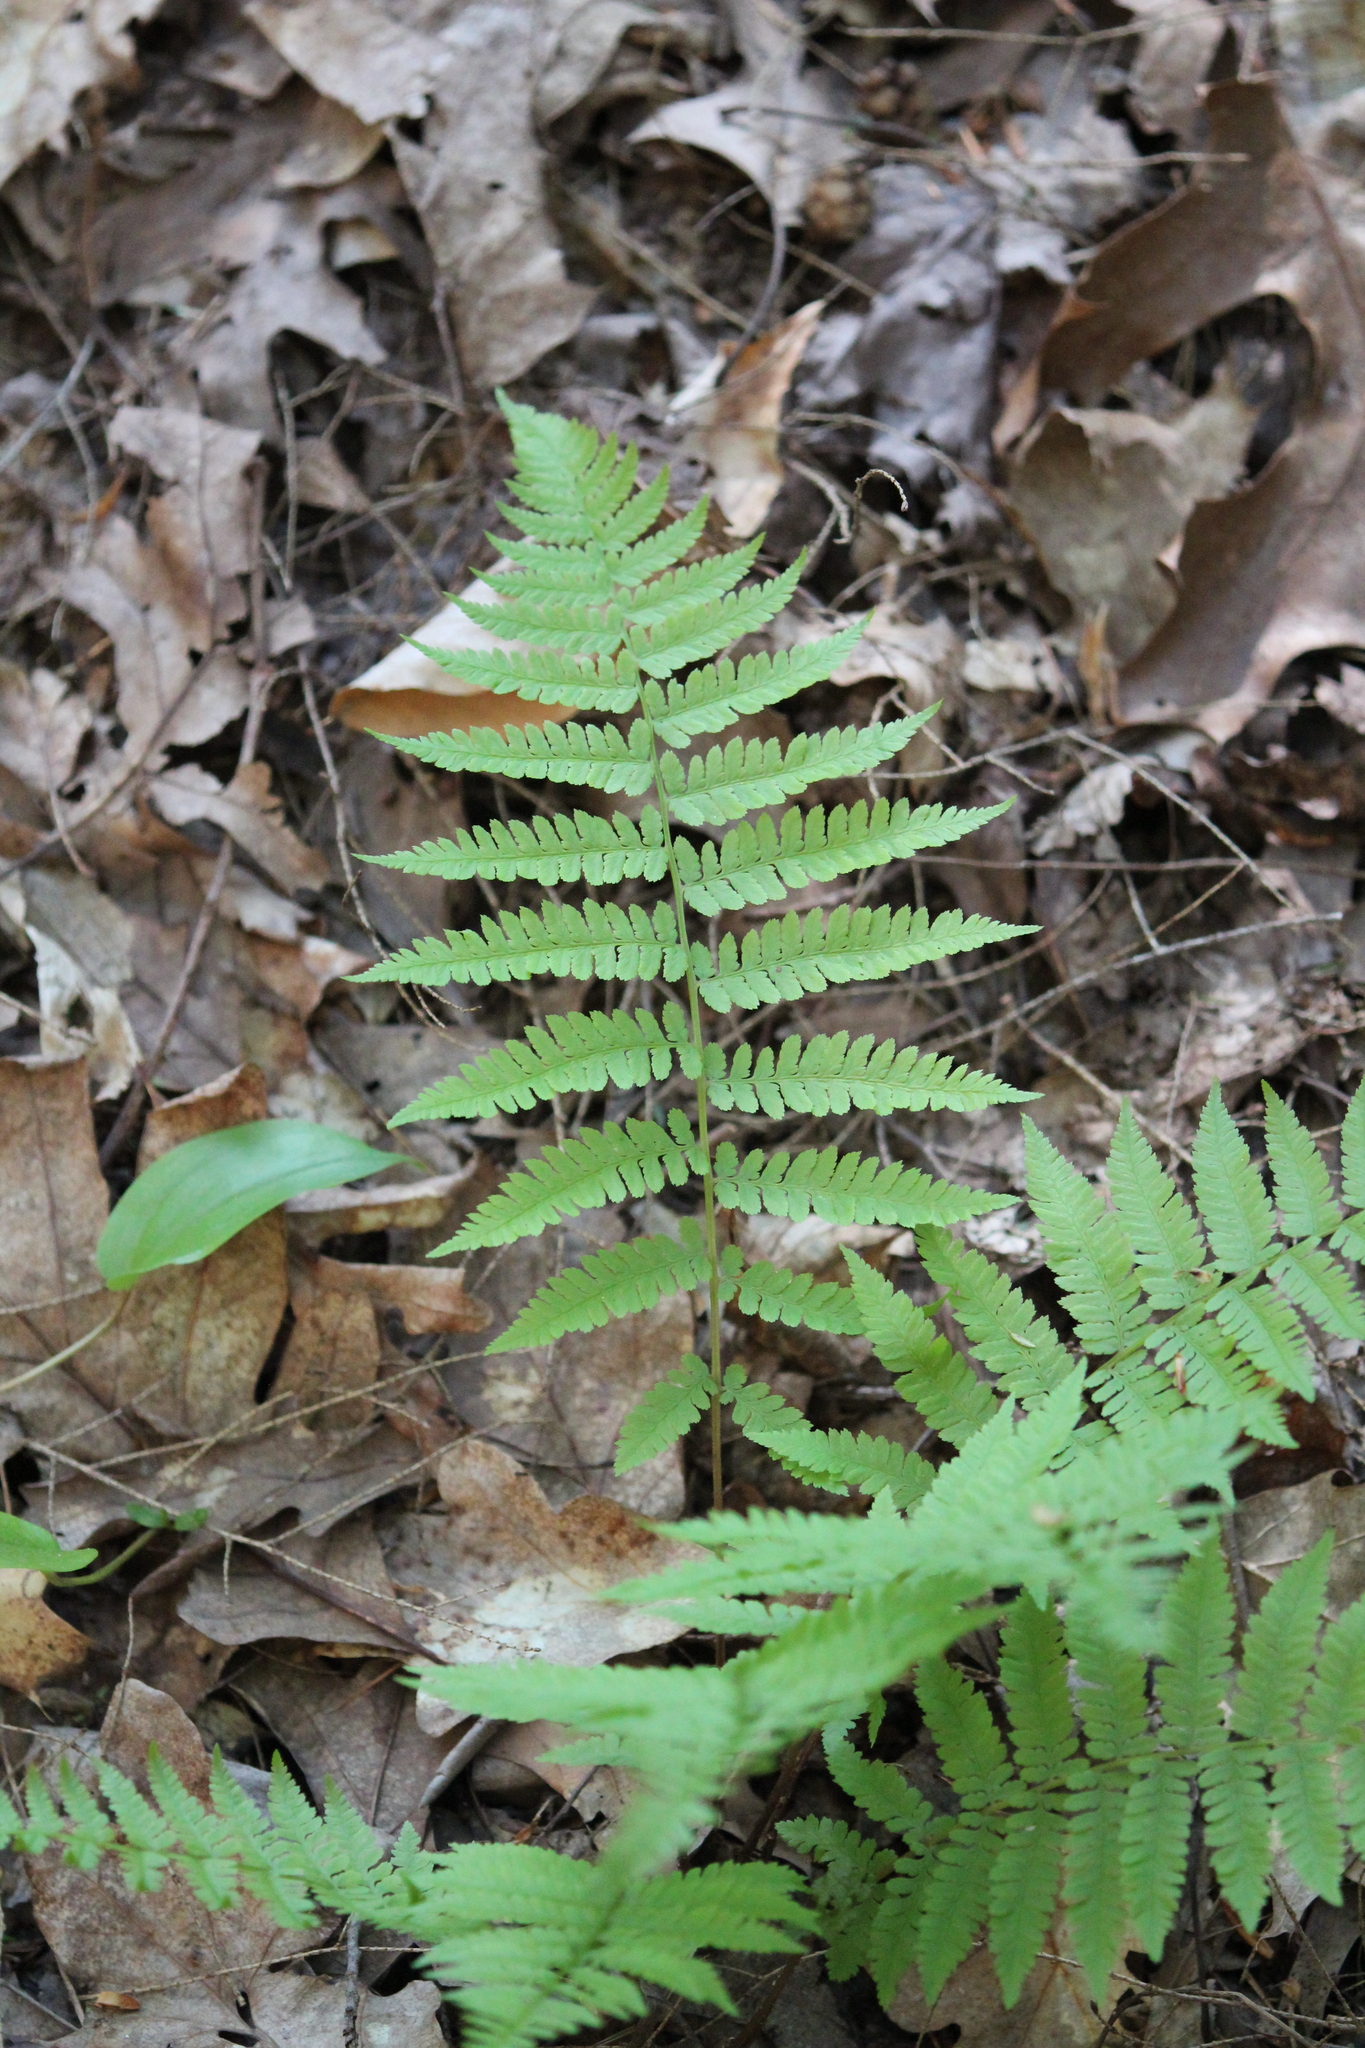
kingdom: Plantae
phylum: Tracheophyta
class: Polypodiopsida
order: Polypodiales
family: Athyriaceae
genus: Athyrium
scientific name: Athyrium angustum
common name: Northern lady fern
